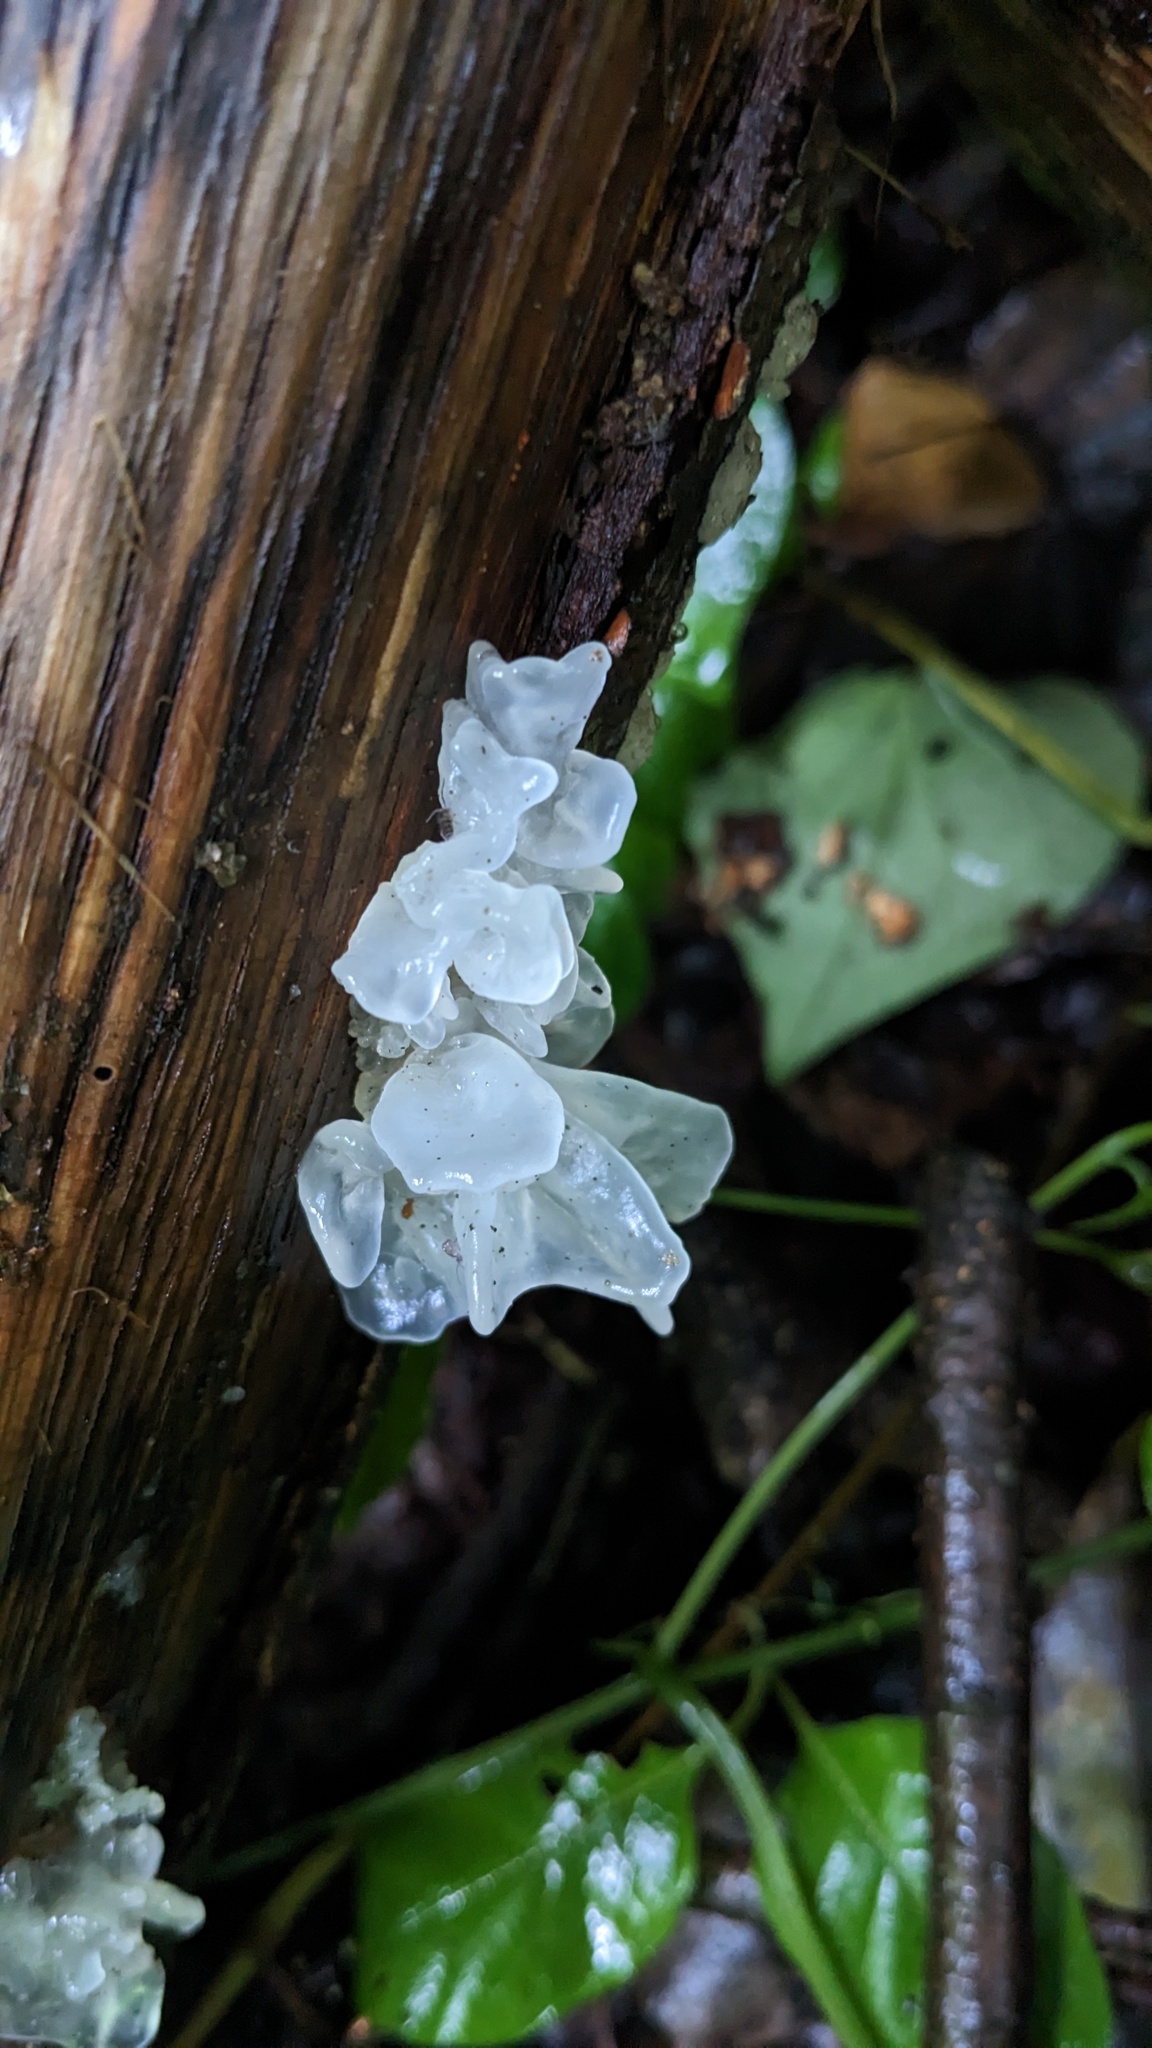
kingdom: Fungi
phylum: Basidiomycota
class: Tremellomycetes
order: Tremellales
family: Tremellaceae
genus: Tremella
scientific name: Tremella fuciformis
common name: Snow fungus
